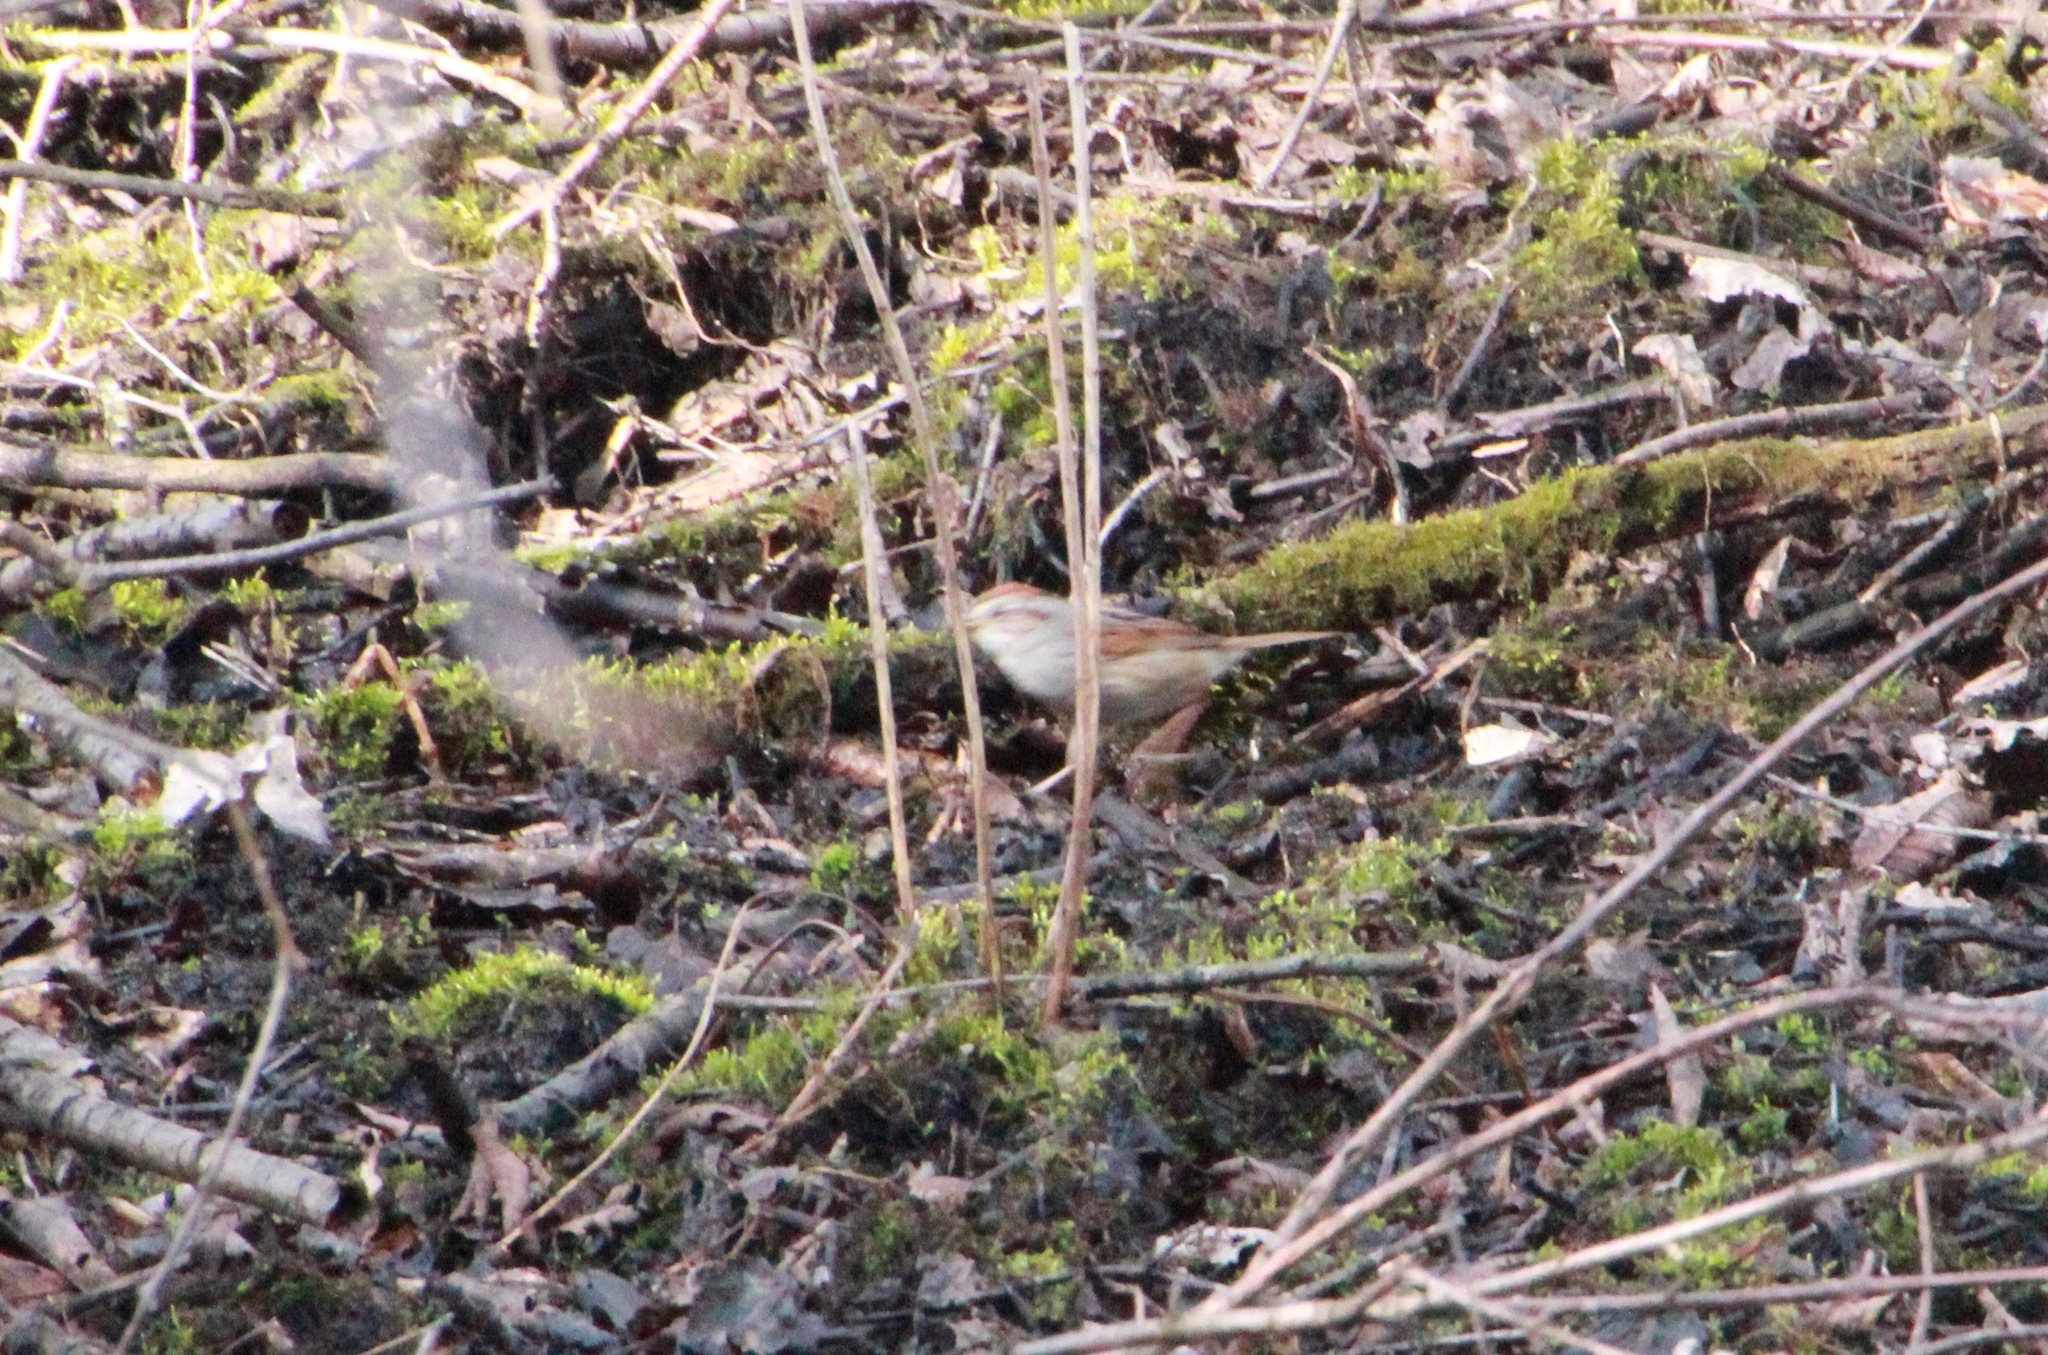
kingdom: Animalia
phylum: Chordata
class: Aves
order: Passeriformes
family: Passerellidae
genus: Melospiza
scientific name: Melospiza georgiana
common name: Swamp sparrow
